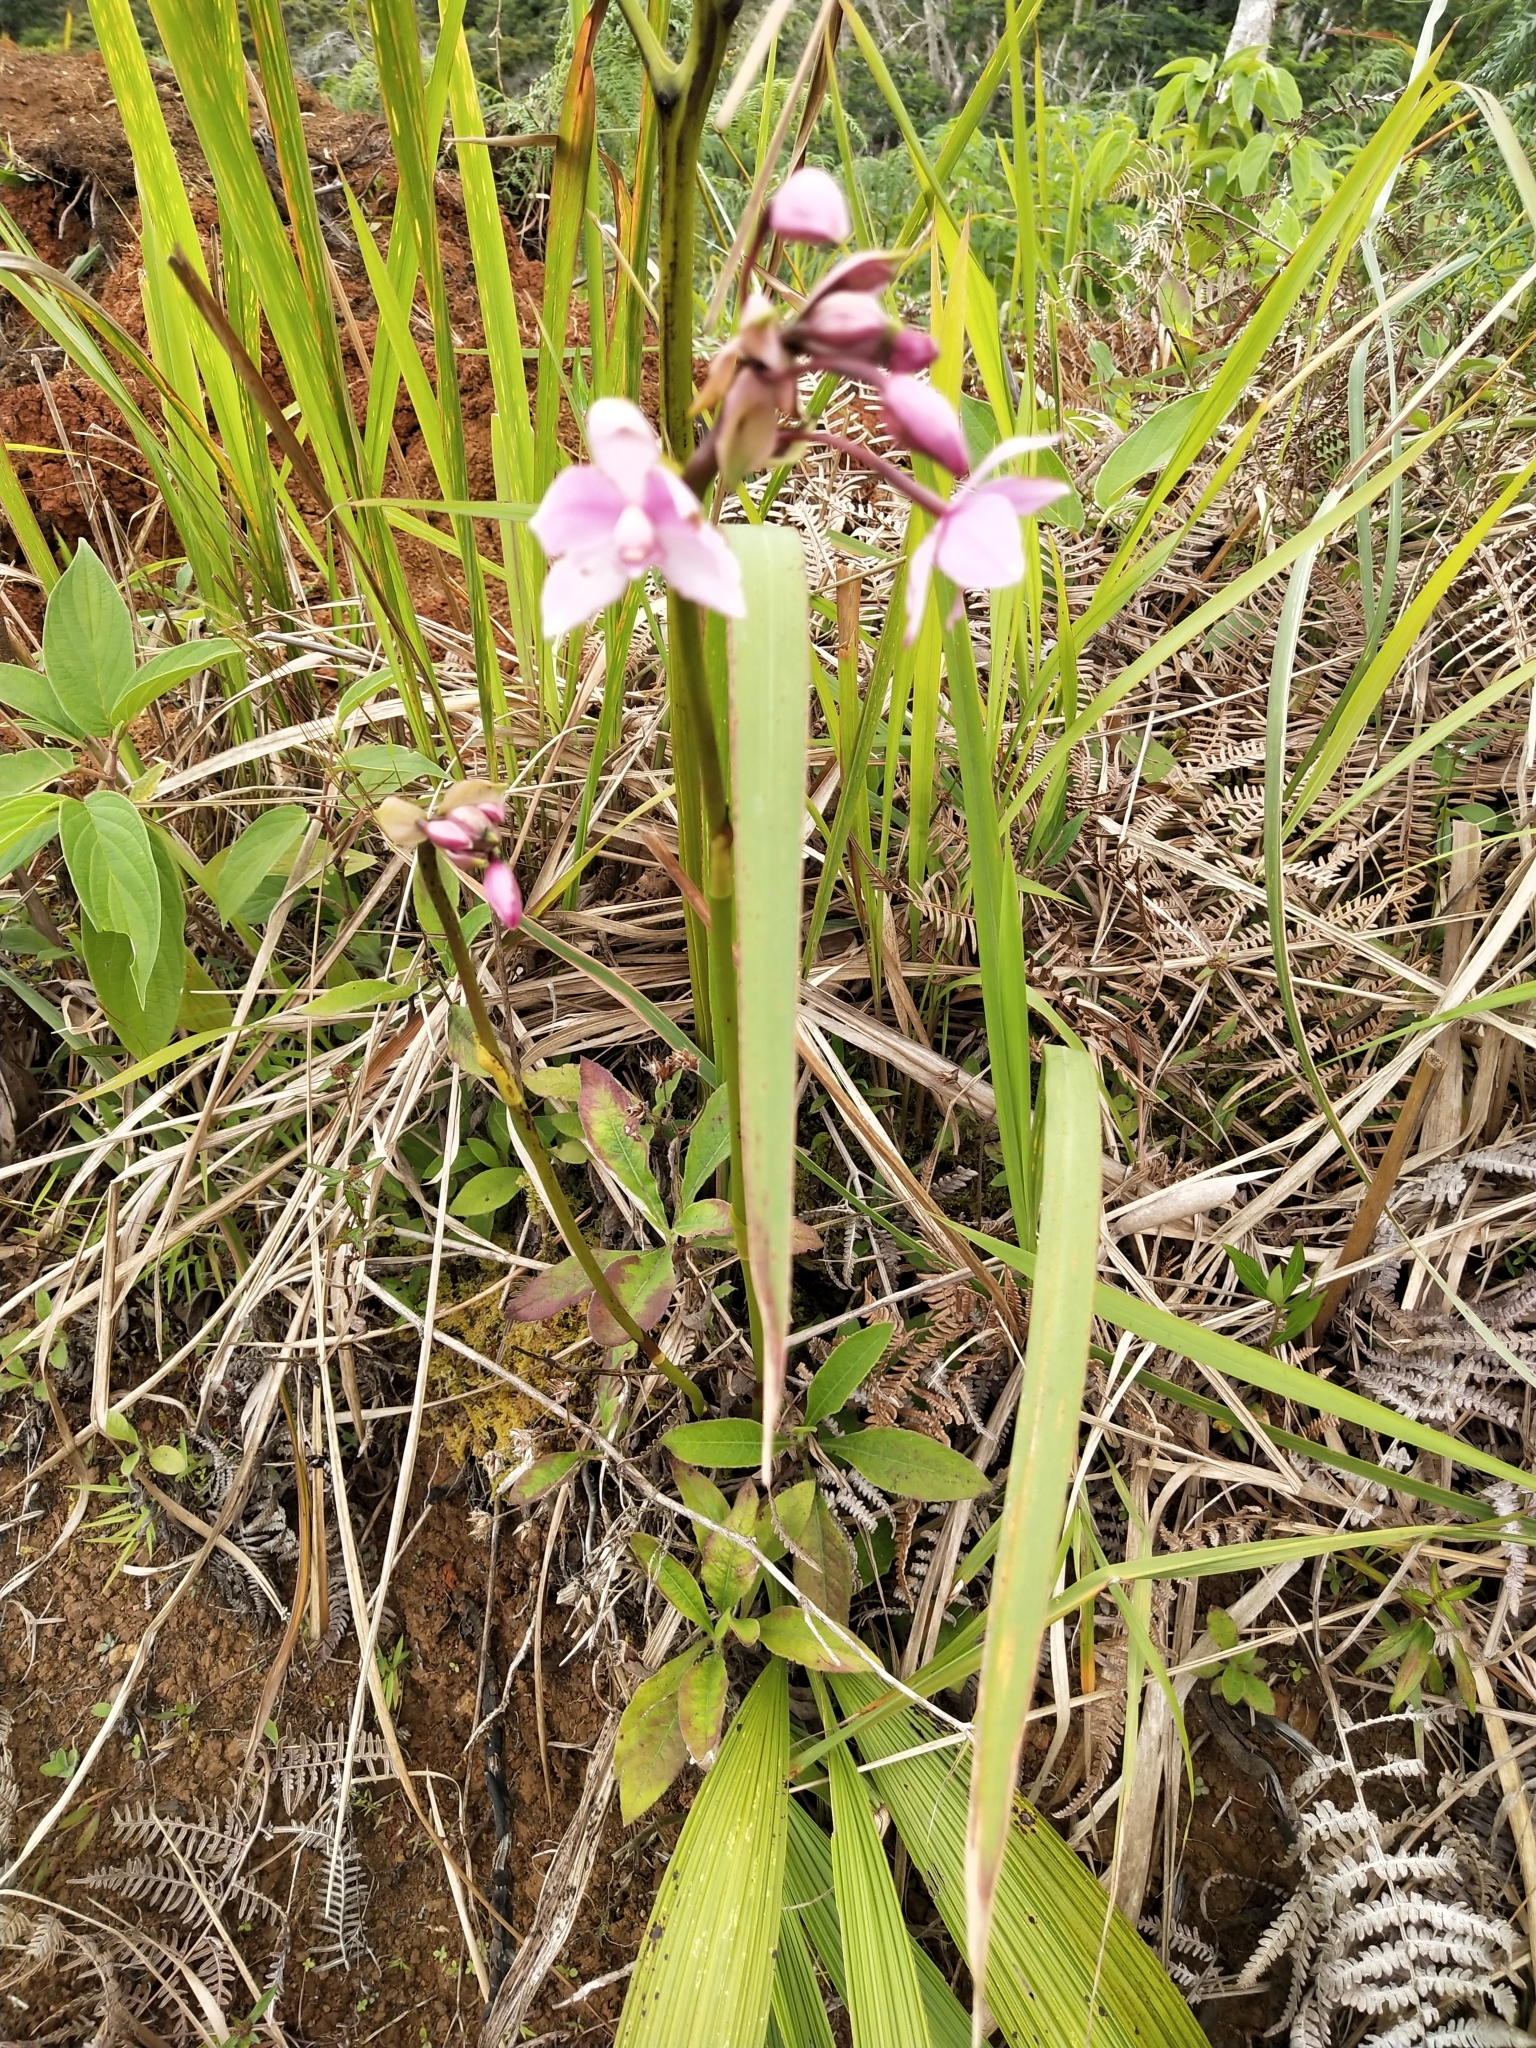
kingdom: Plantae
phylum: Tracheophyta
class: Liliopsida
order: Asparagales
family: Orchidaceae
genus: Spathoglottis
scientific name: Spathoglottis plicata
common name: Philippine ground orchid
